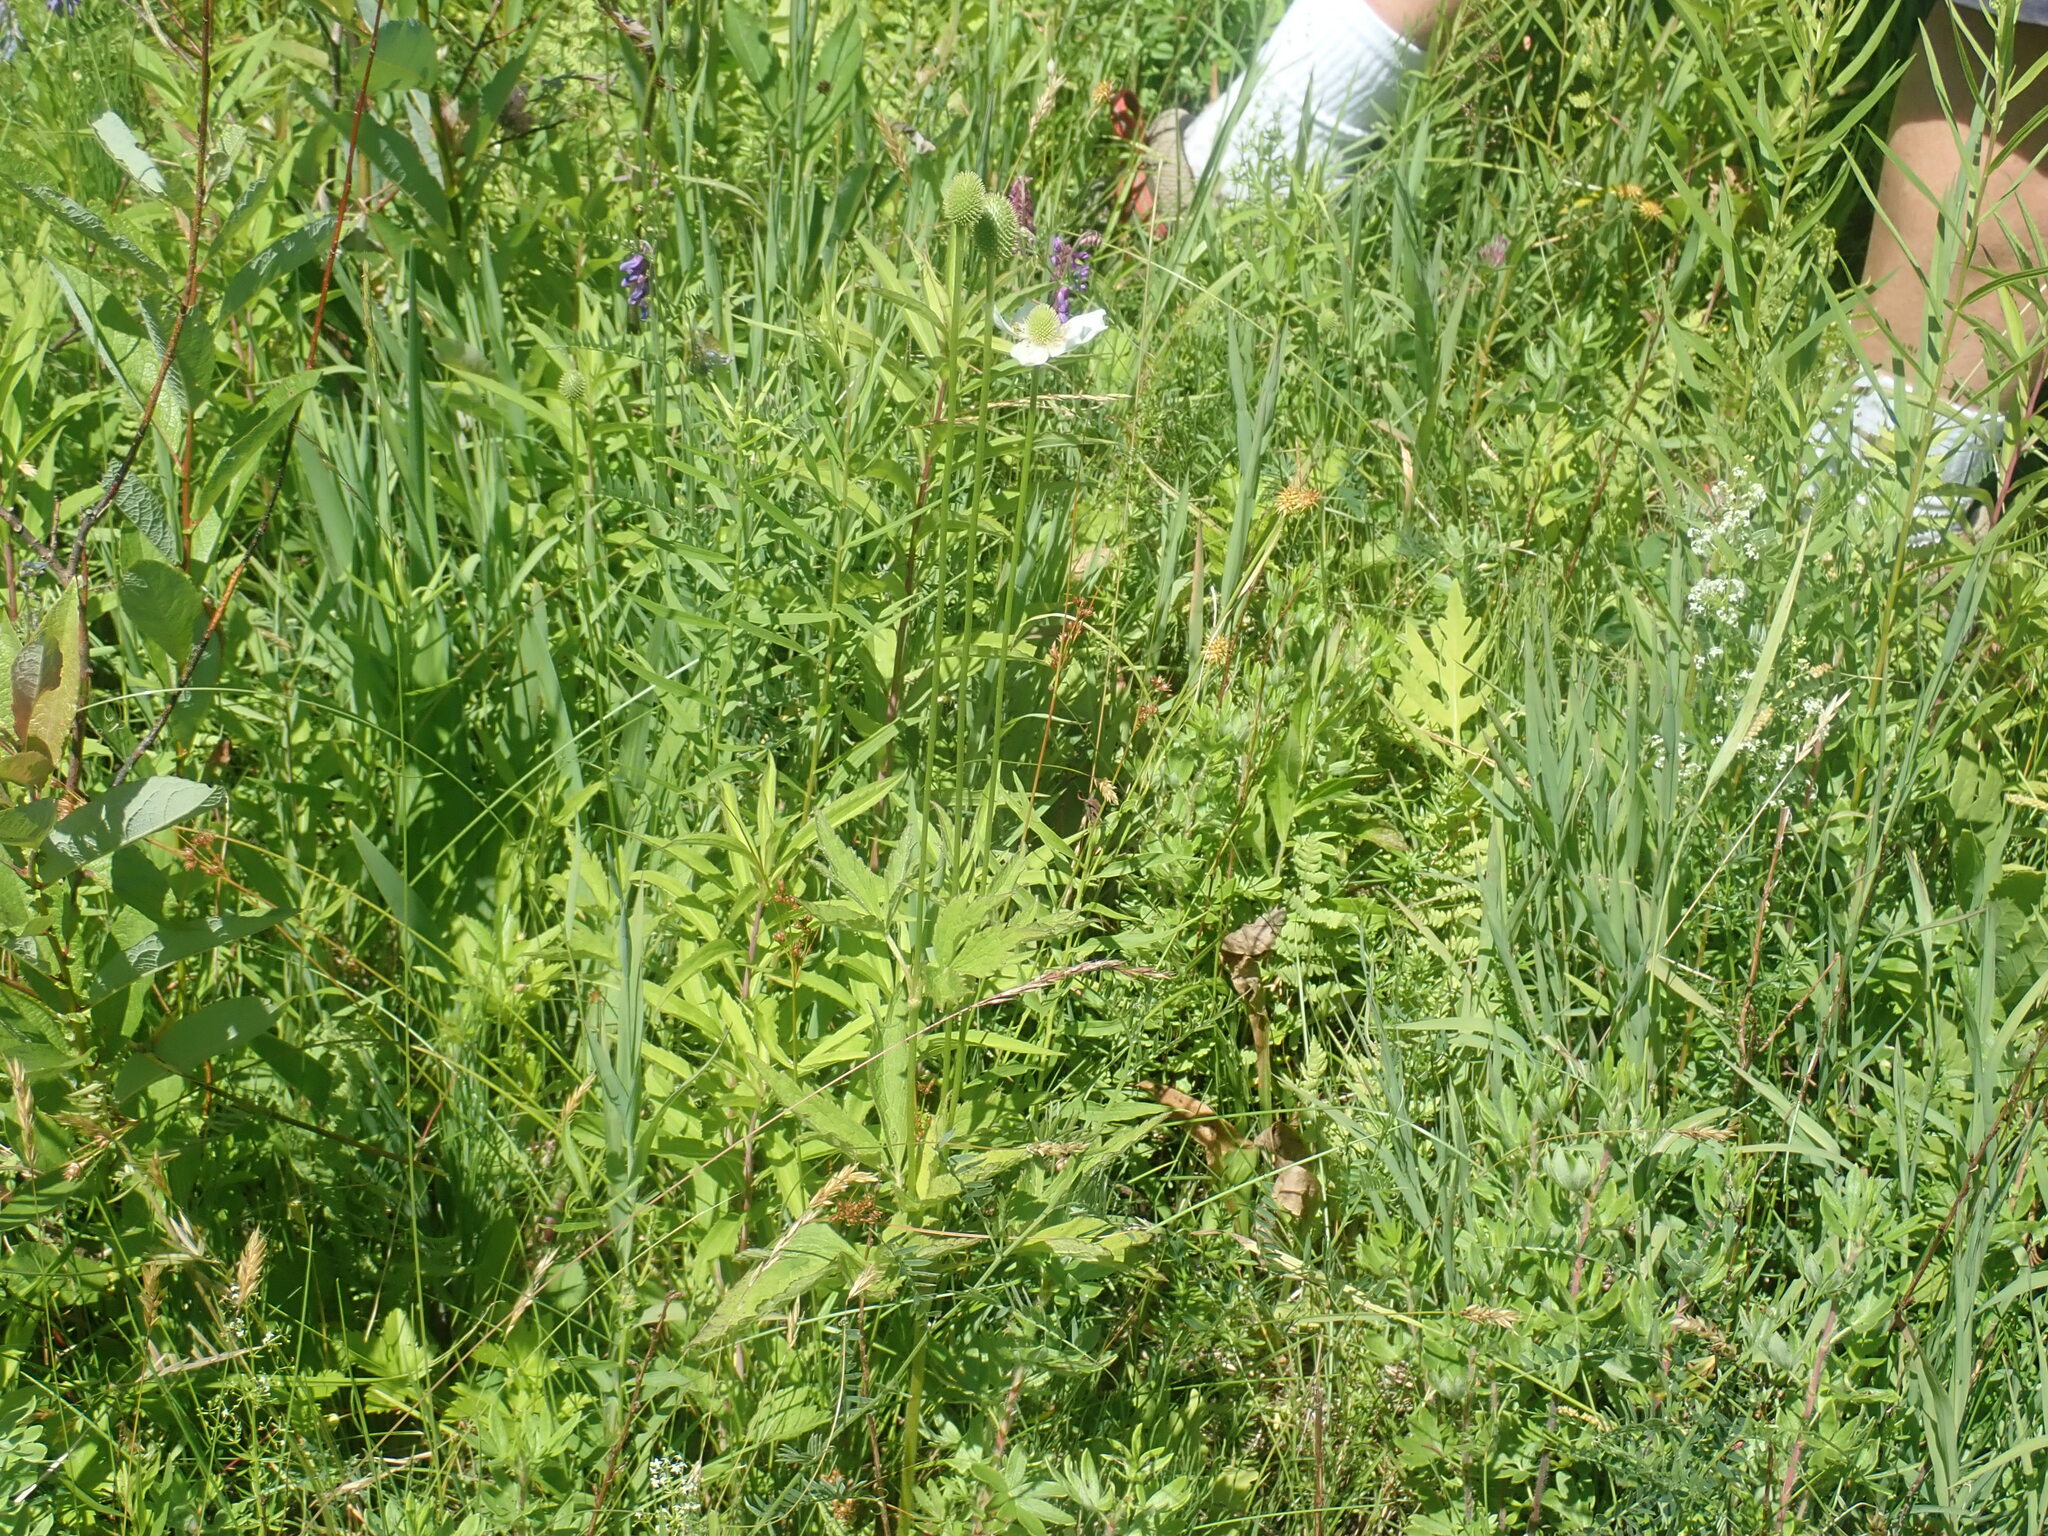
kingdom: Plantae
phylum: Tracheophyta
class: Magnoliopsida
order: Ranunculales
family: Ranunculaceae
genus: Anemone
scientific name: Anemone virginiana
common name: Tall anemone
